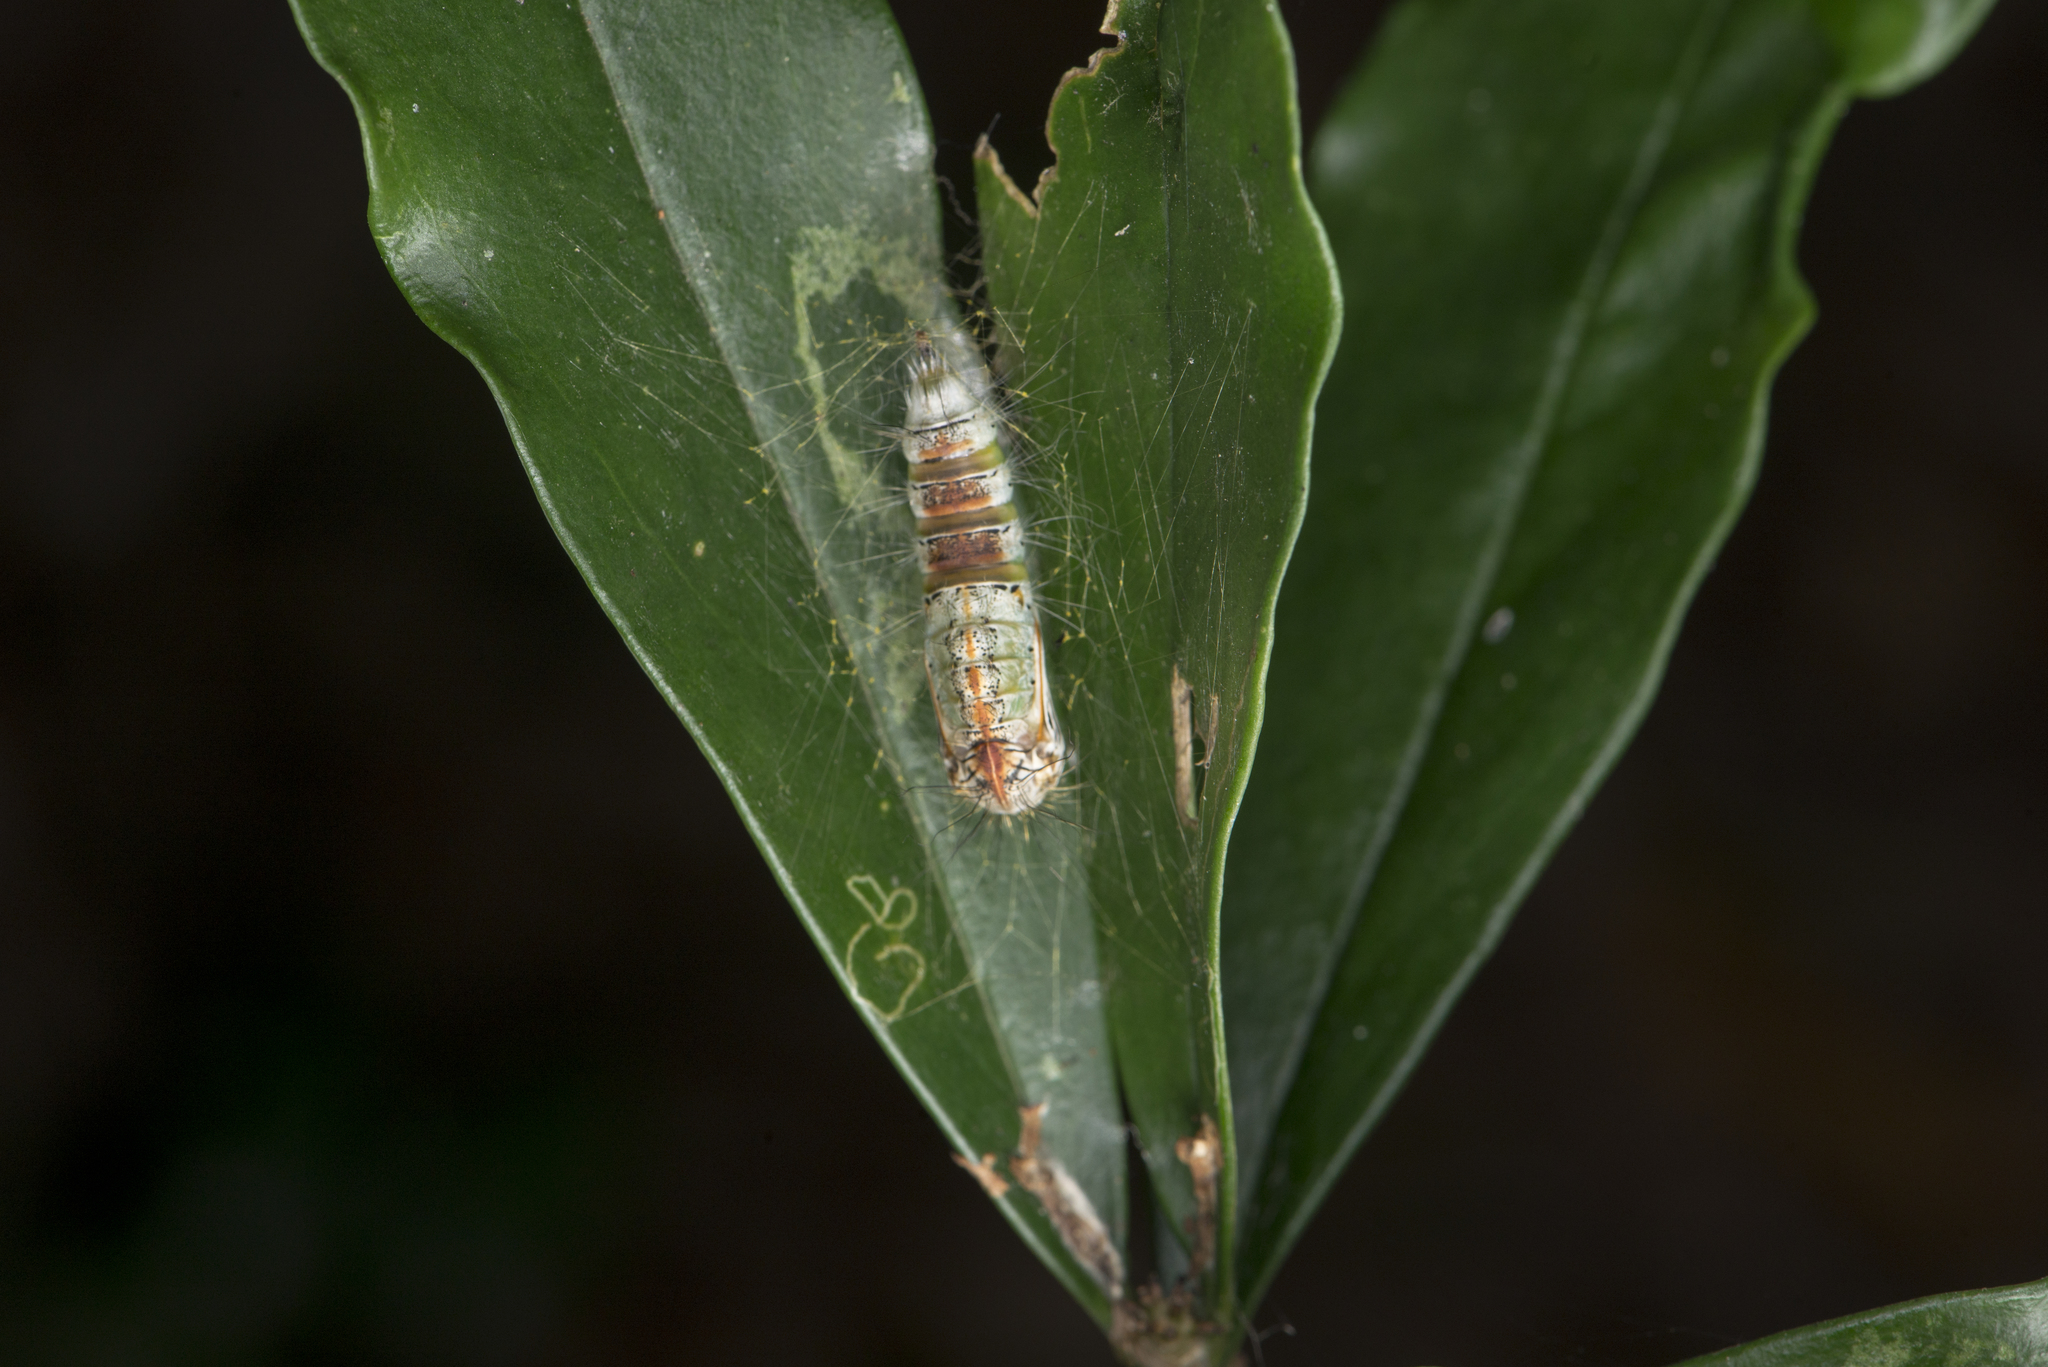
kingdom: Animalia
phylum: Arthropoda
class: Insecta
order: Lepidoptera
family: Erebidae
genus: Sphrageidus
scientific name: Sphrageidus virguncula
